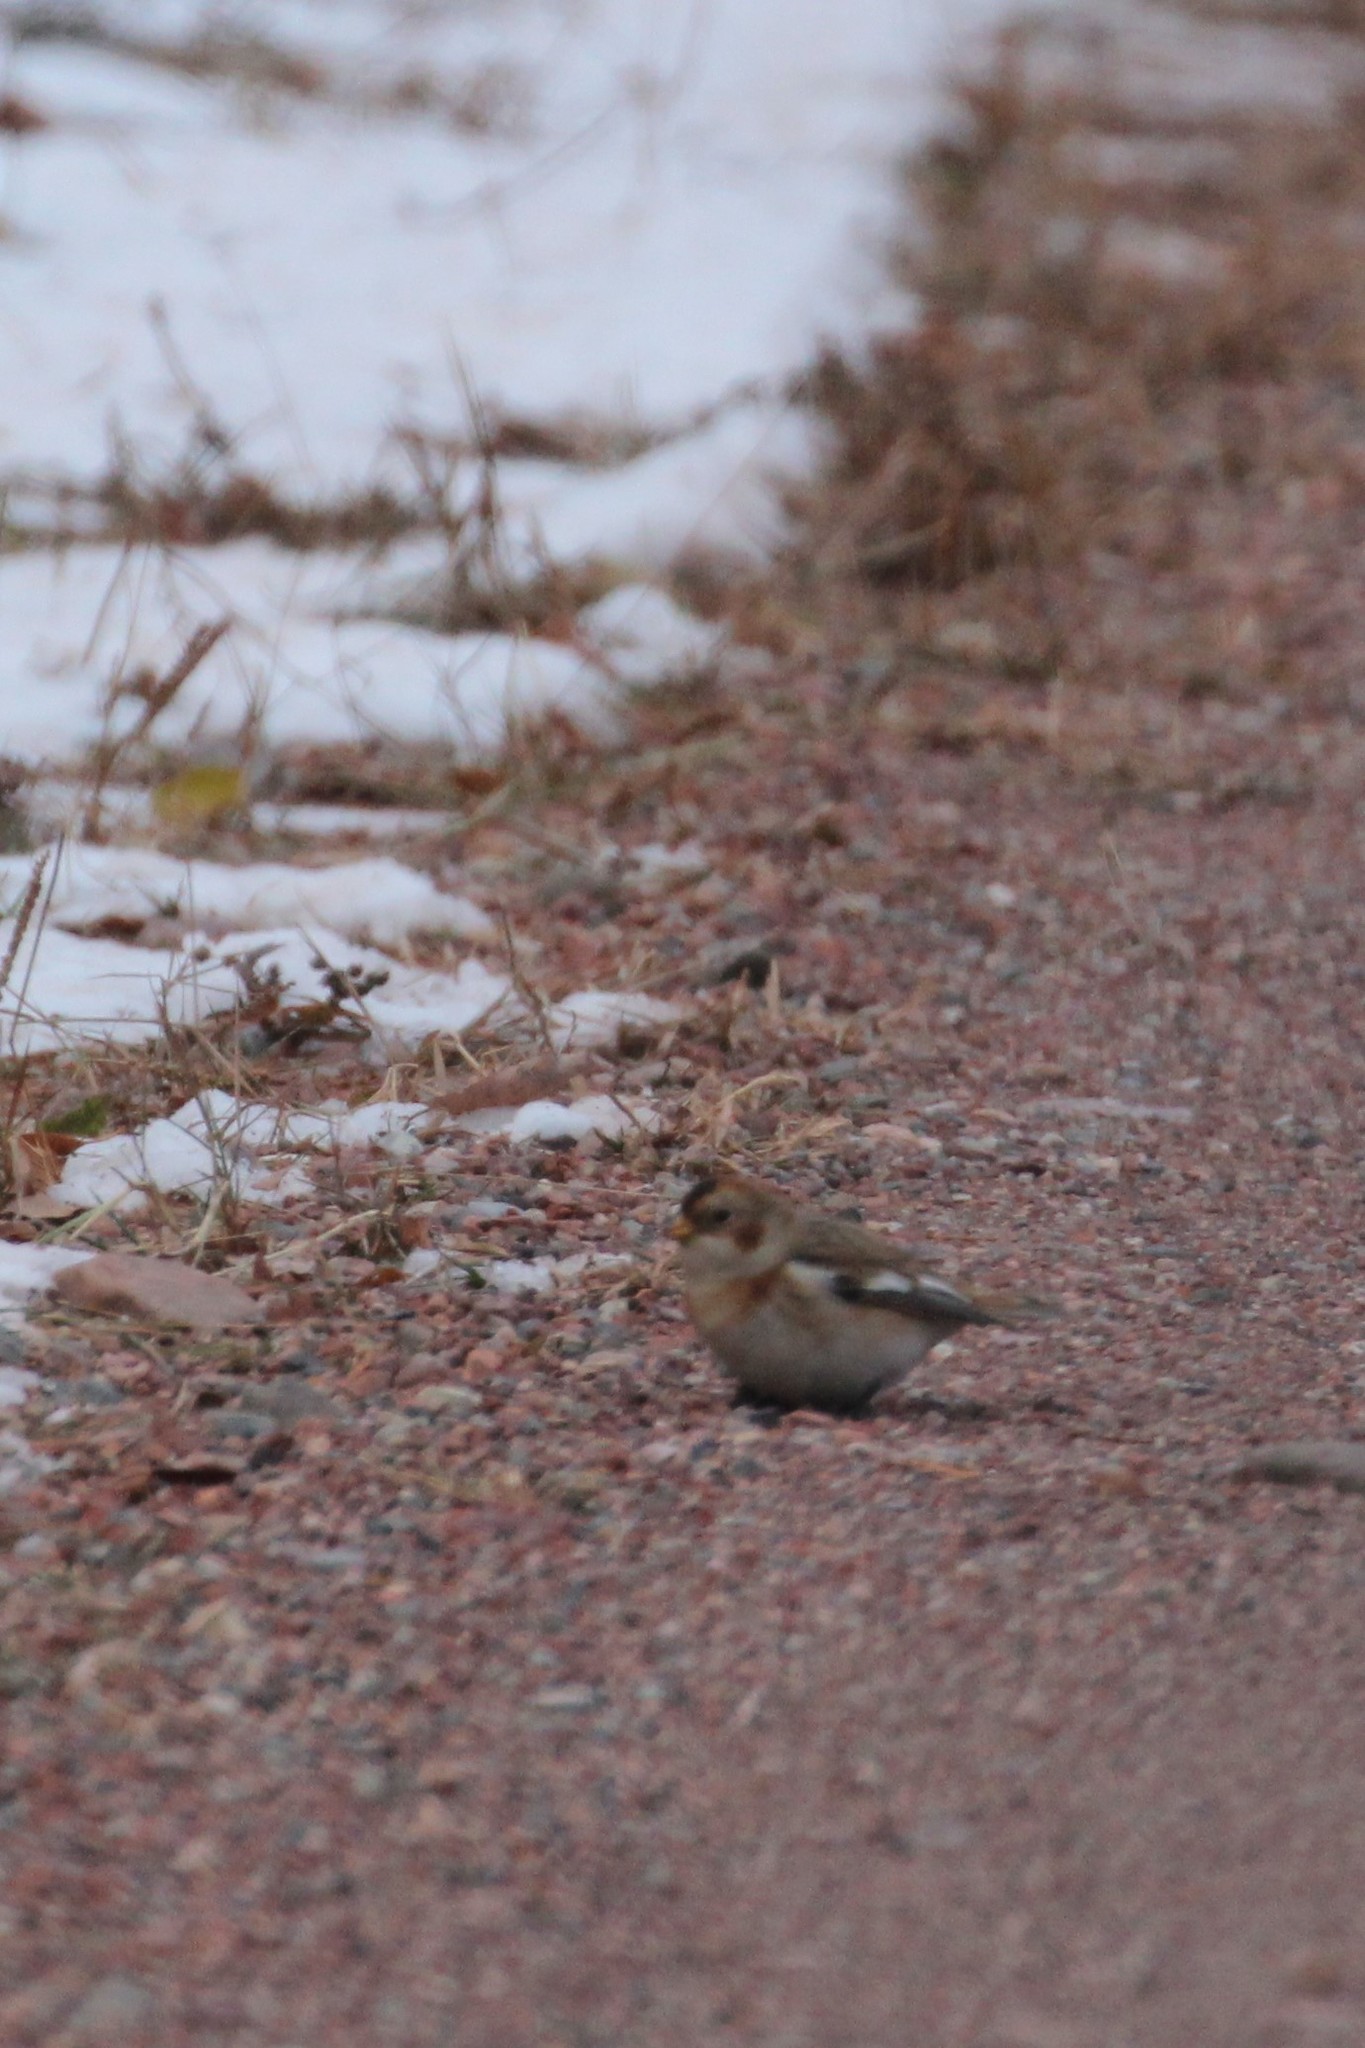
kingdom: Animalia
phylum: Chordata
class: Aves
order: Passeriformes
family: Calcariidae
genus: Plectrophenax
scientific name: Plectrophenax nivalis
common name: Snow bunting
